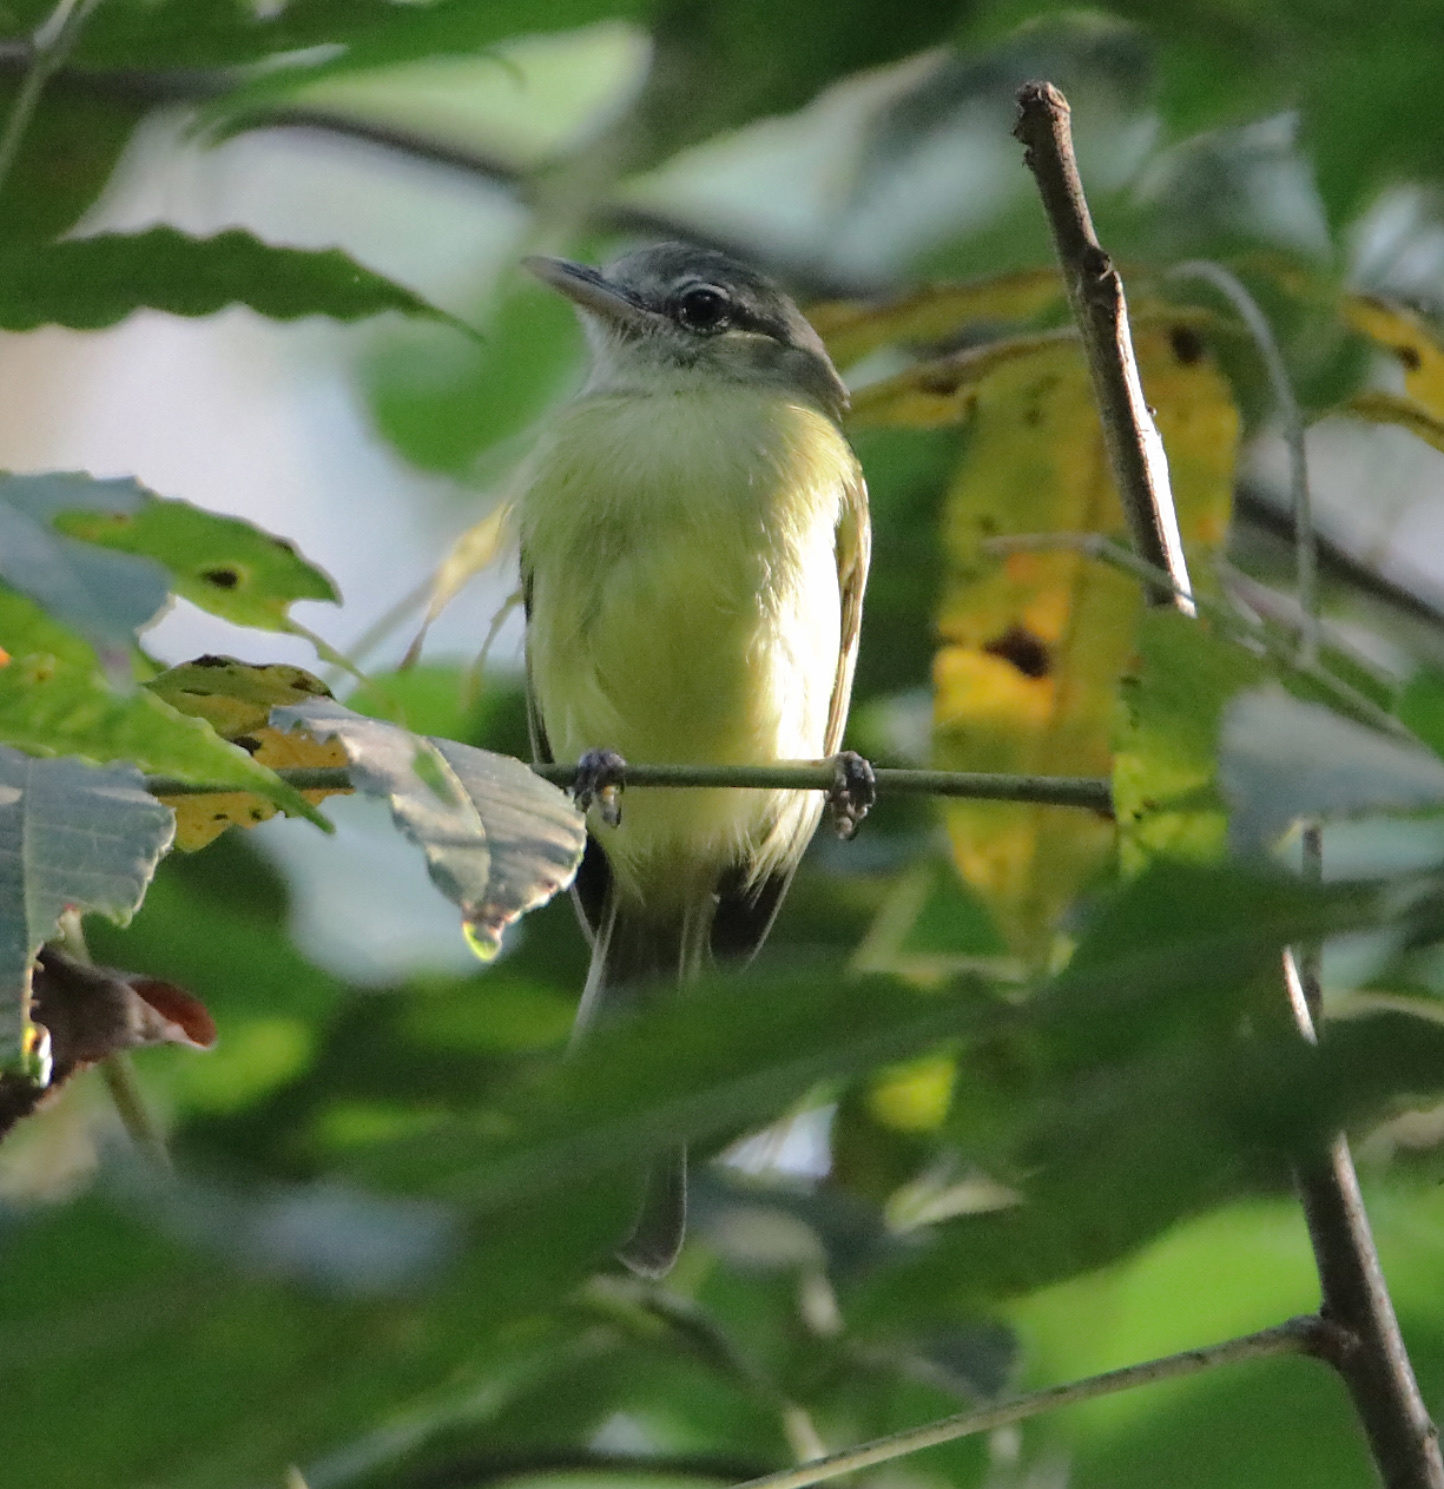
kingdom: Animalia
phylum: Chordata
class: Aves
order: Passeriformes
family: Tyrannidae
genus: Tolmomyias
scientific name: Tolmomyias sulphurescens
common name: Yellow-olive flycatcher
